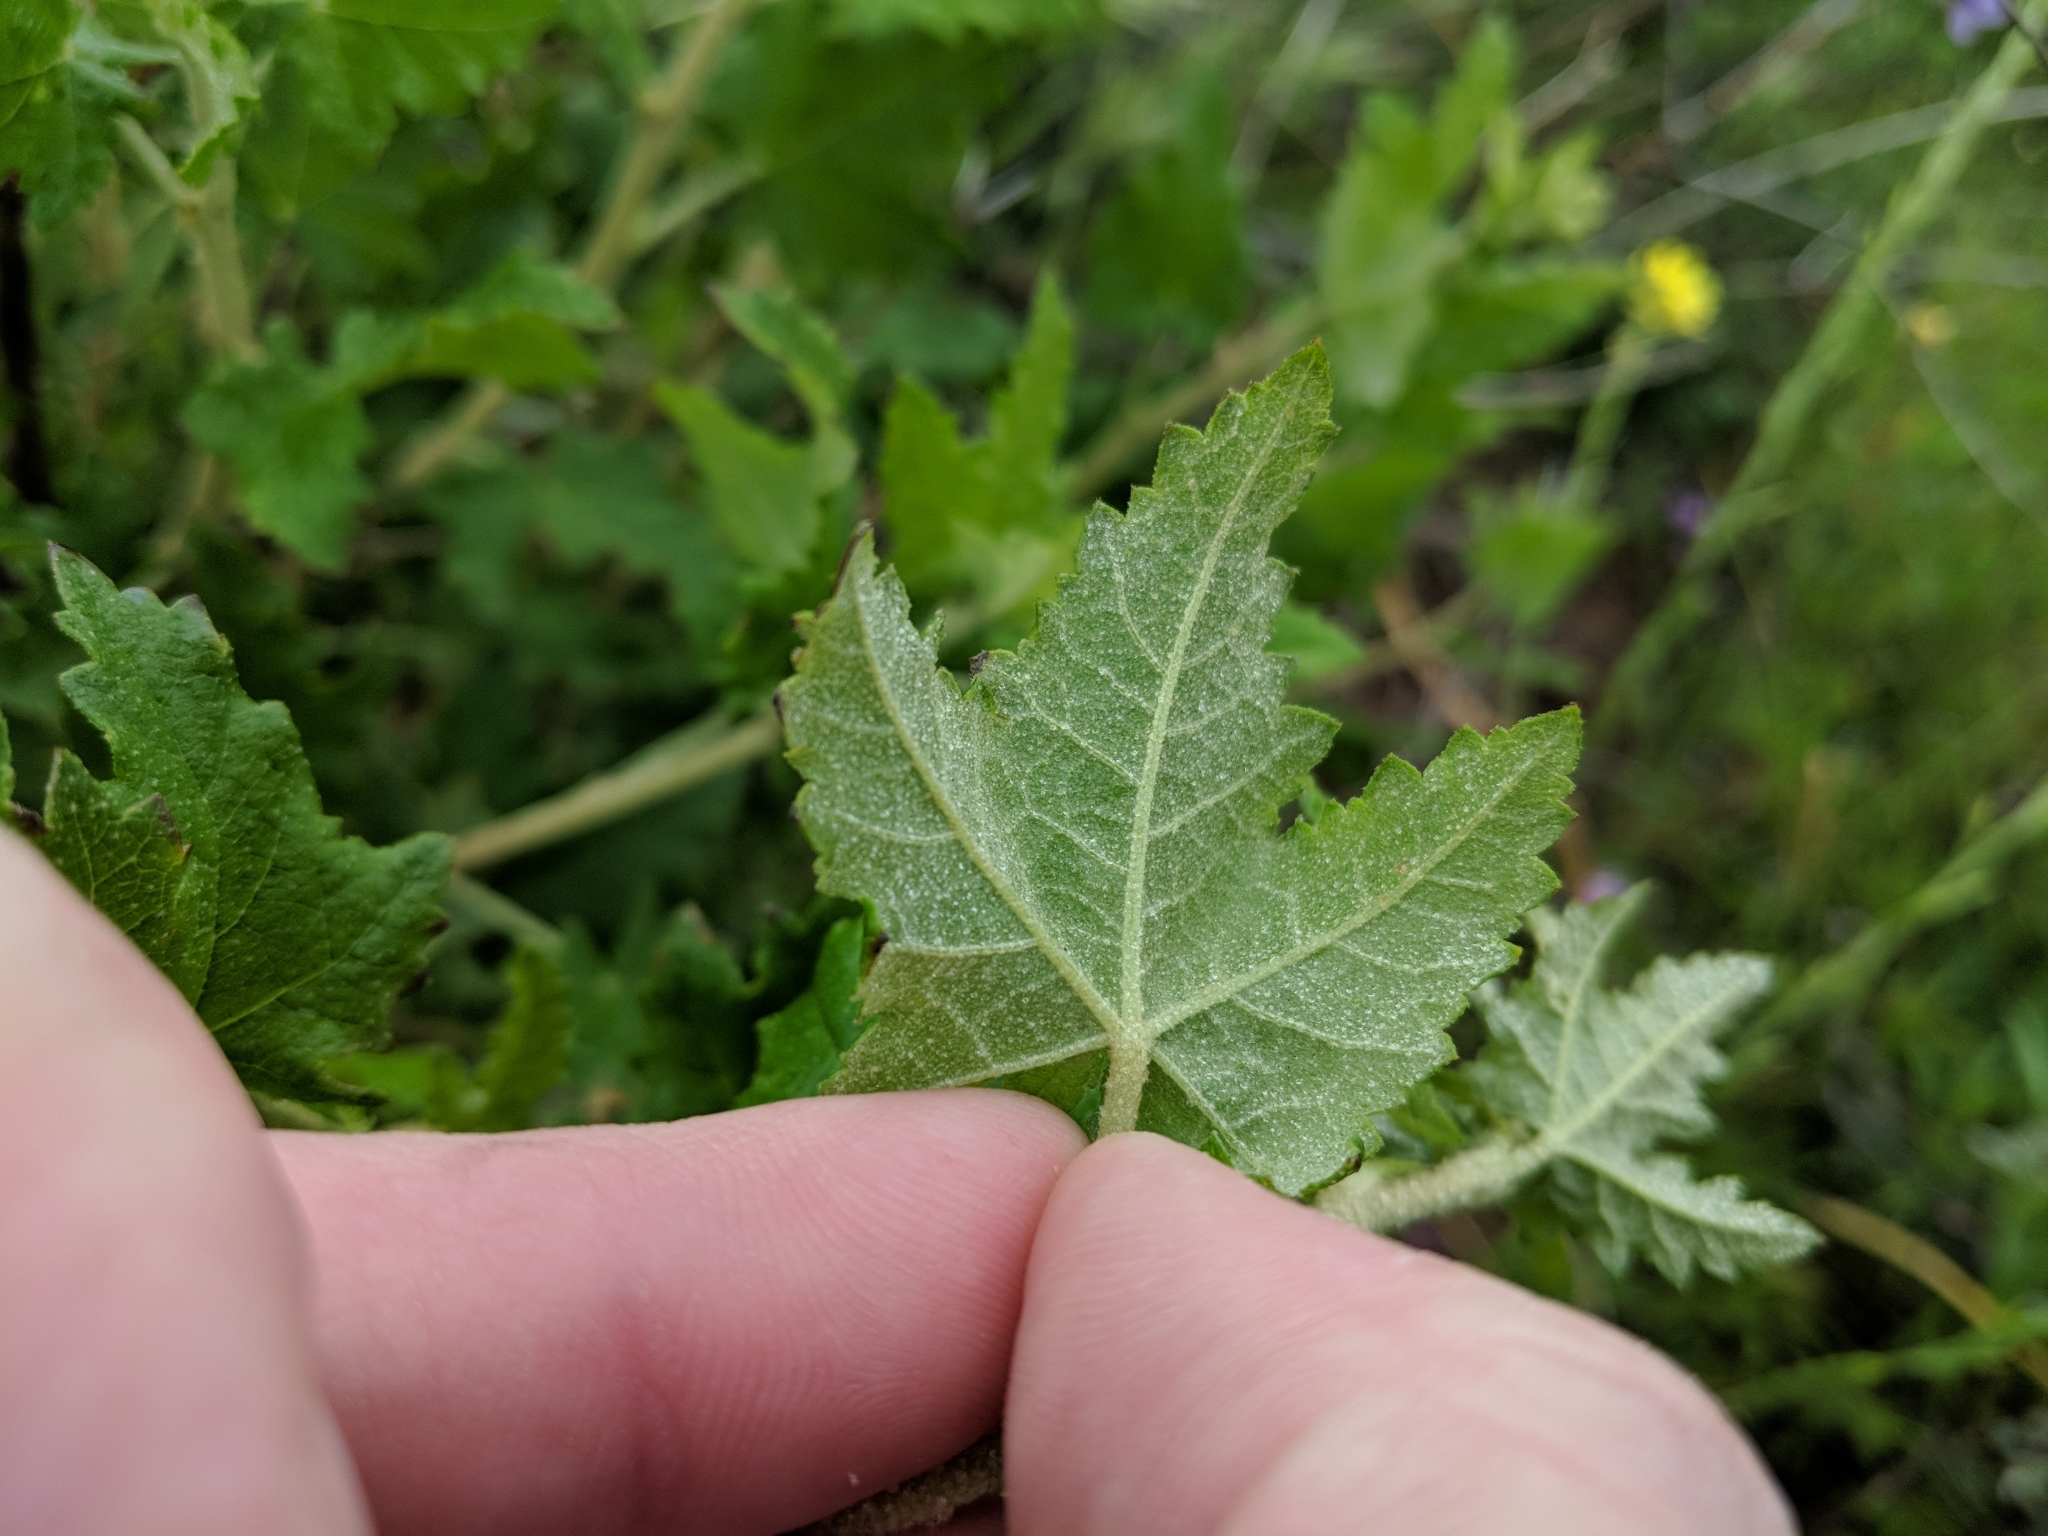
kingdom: Plantae
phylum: Tracheophyta
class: Magnoliopsida
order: Malvales
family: Malvaceae
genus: Malacothamnus
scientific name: Malacothamnus fasciculatus
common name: Sant cruz island bush-mallow
